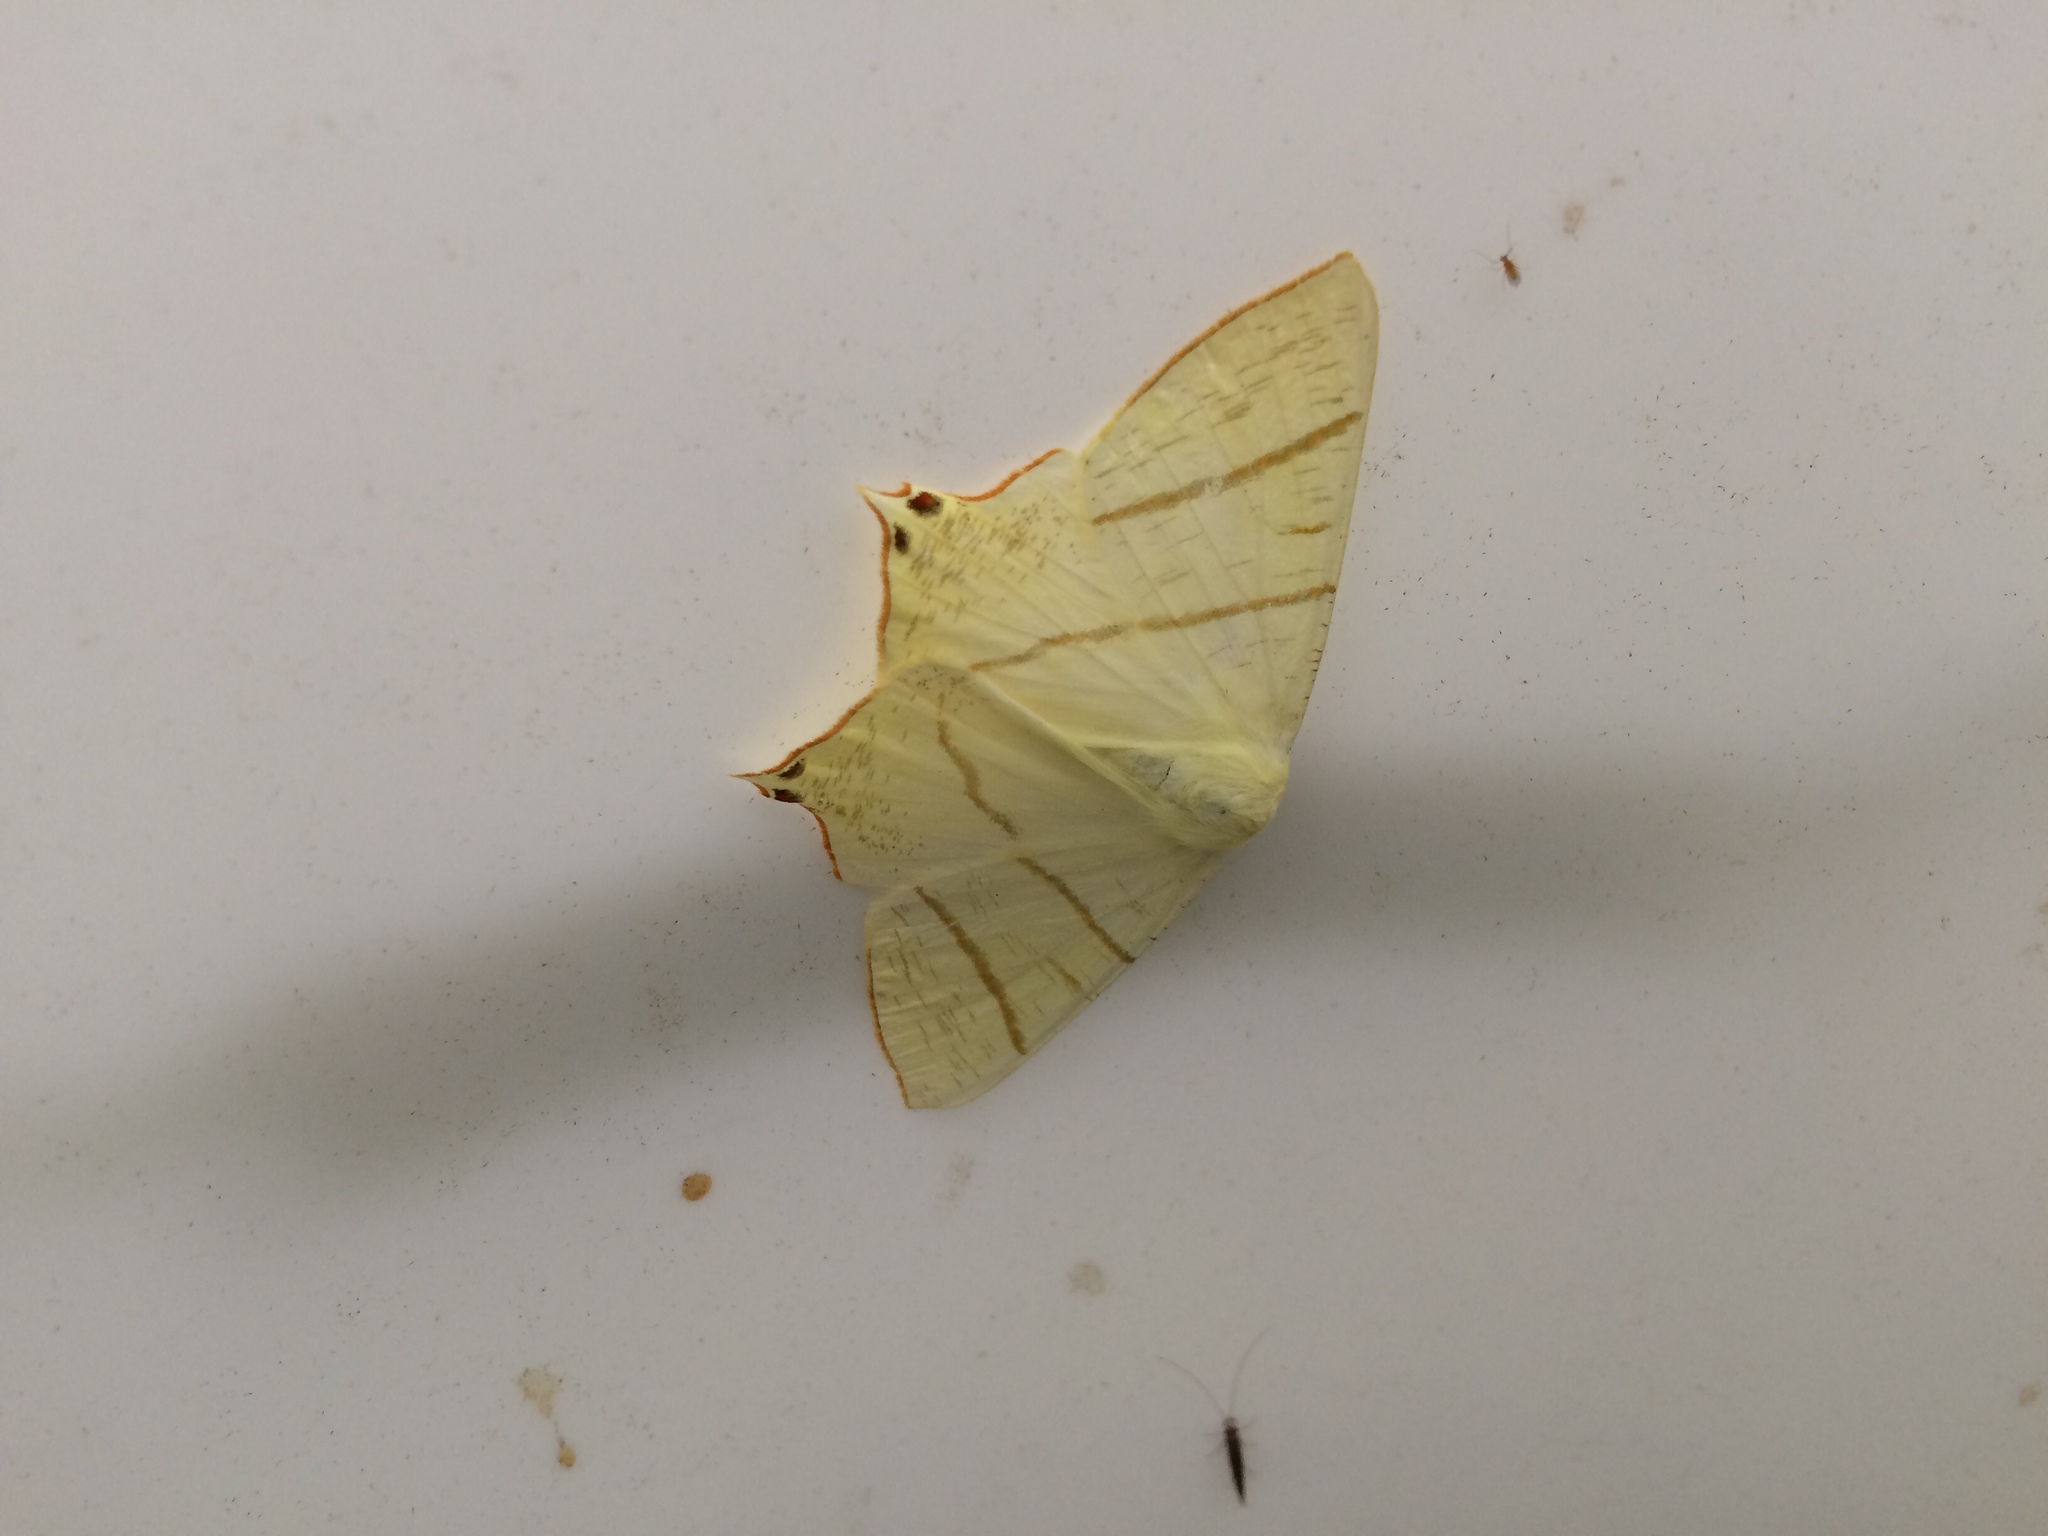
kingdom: Animalia
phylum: Arthropoda
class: Insecta
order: Lepidoptera
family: Geometridae
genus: Ourapteryx
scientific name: Ourapteryx sambucaria
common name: Swallow-tailed moth
